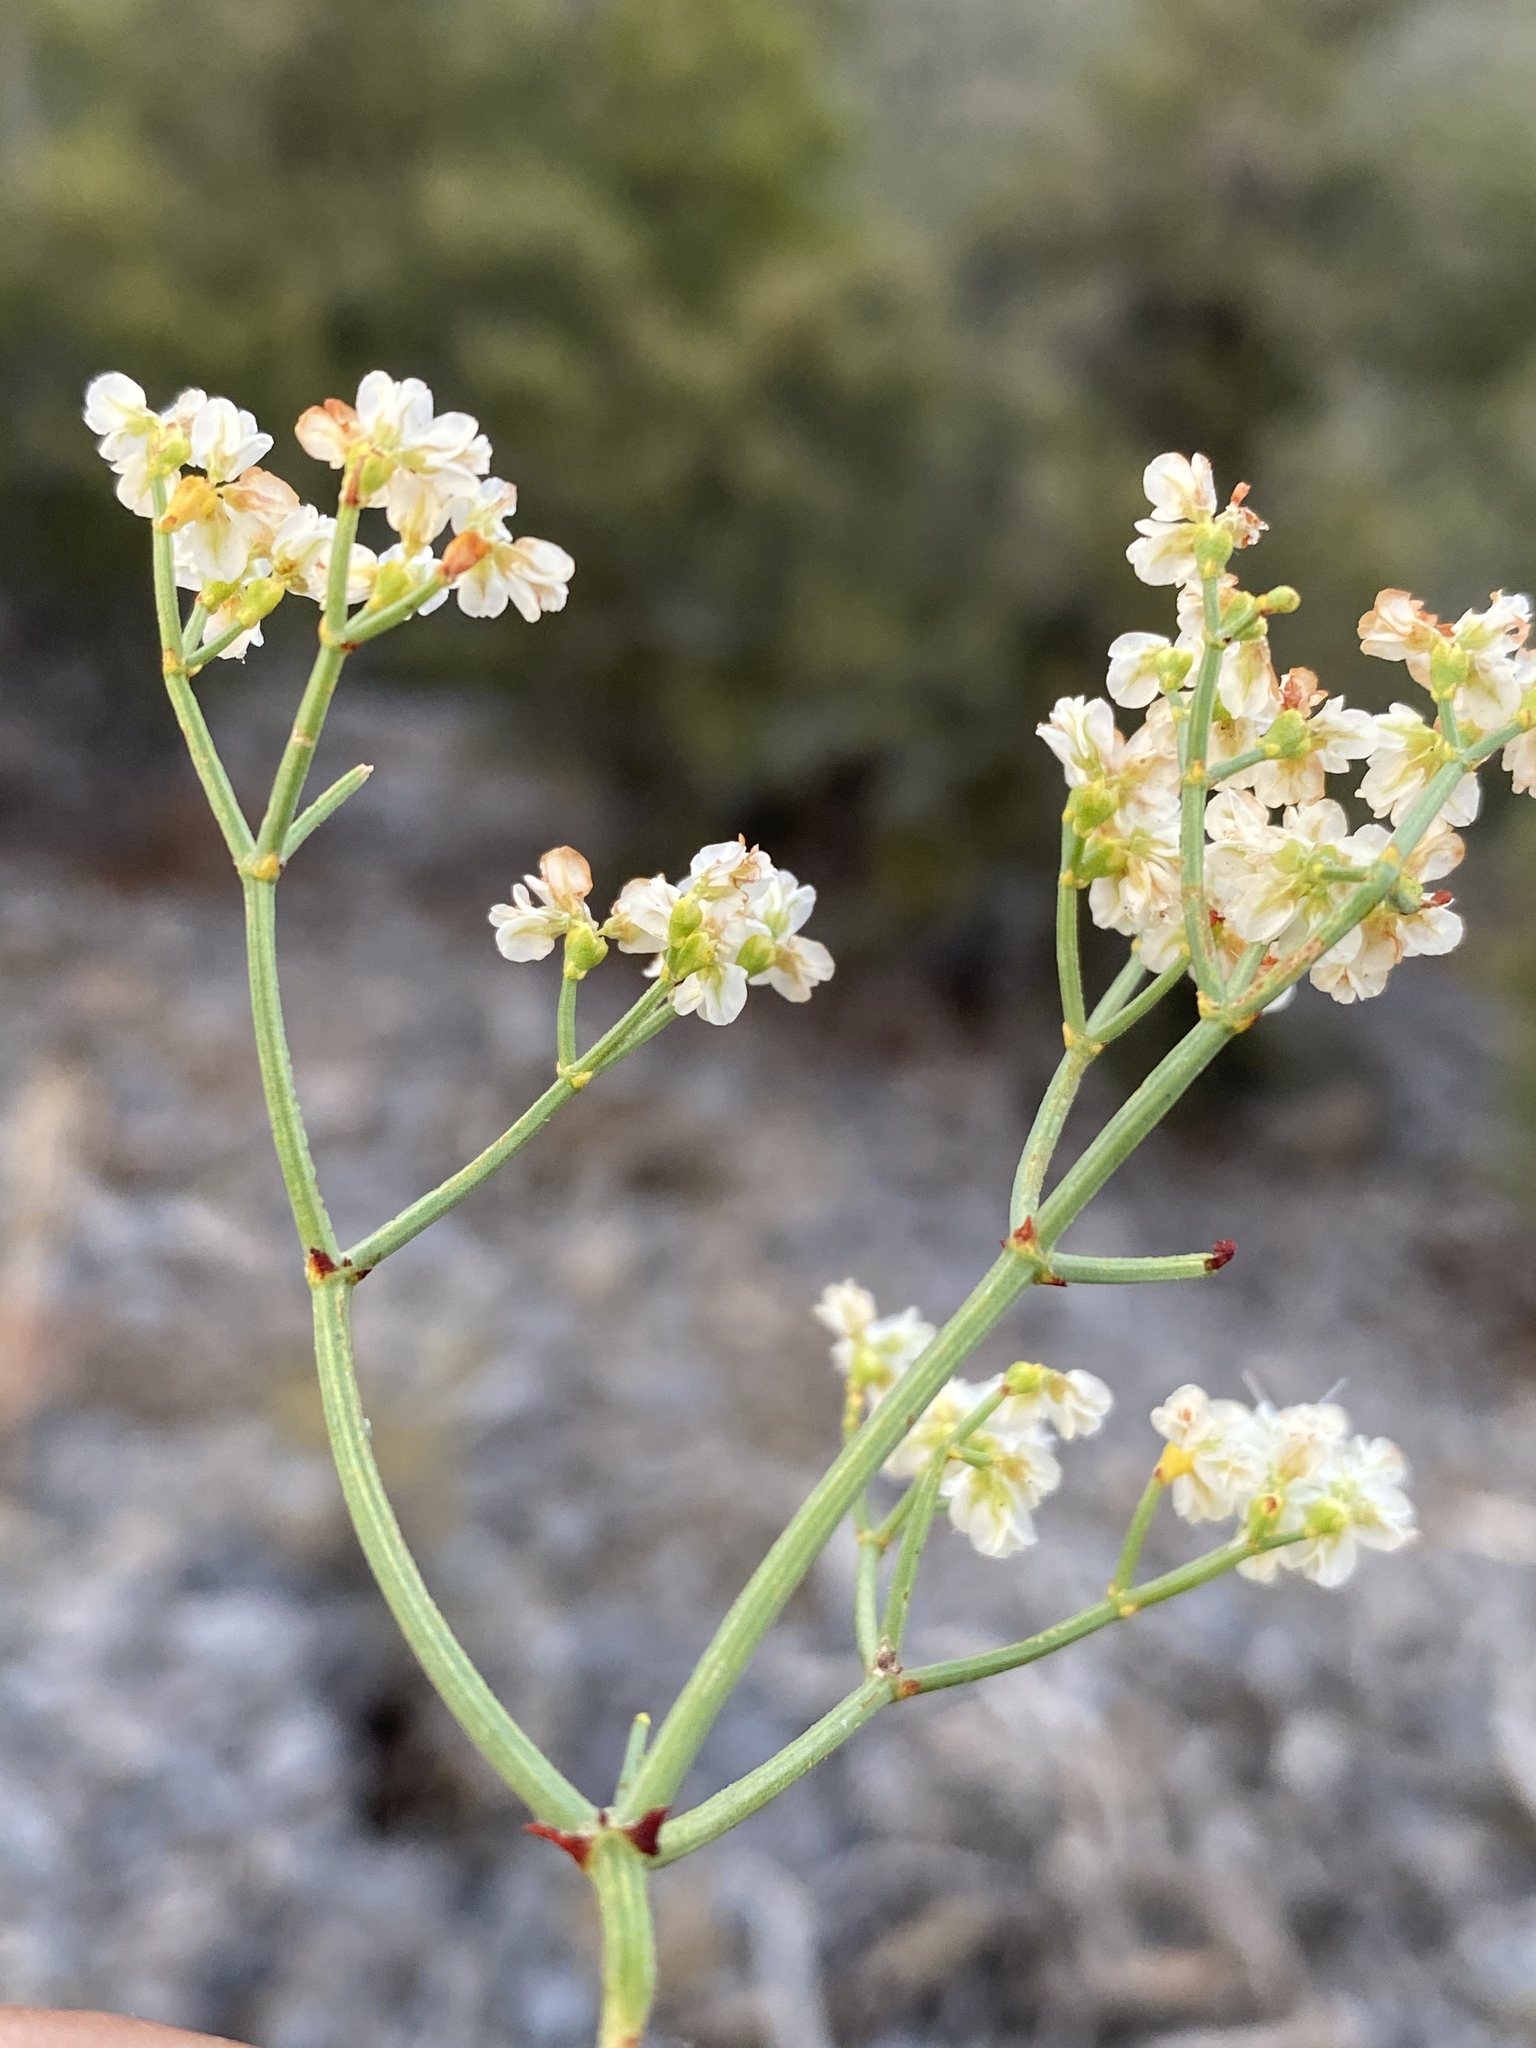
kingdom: Plantae
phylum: Tracheophyta
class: Magnoliopsida
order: Caryophyllales
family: Polygonaceae
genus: Eriogonum
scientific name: Eriogonum heermannii
